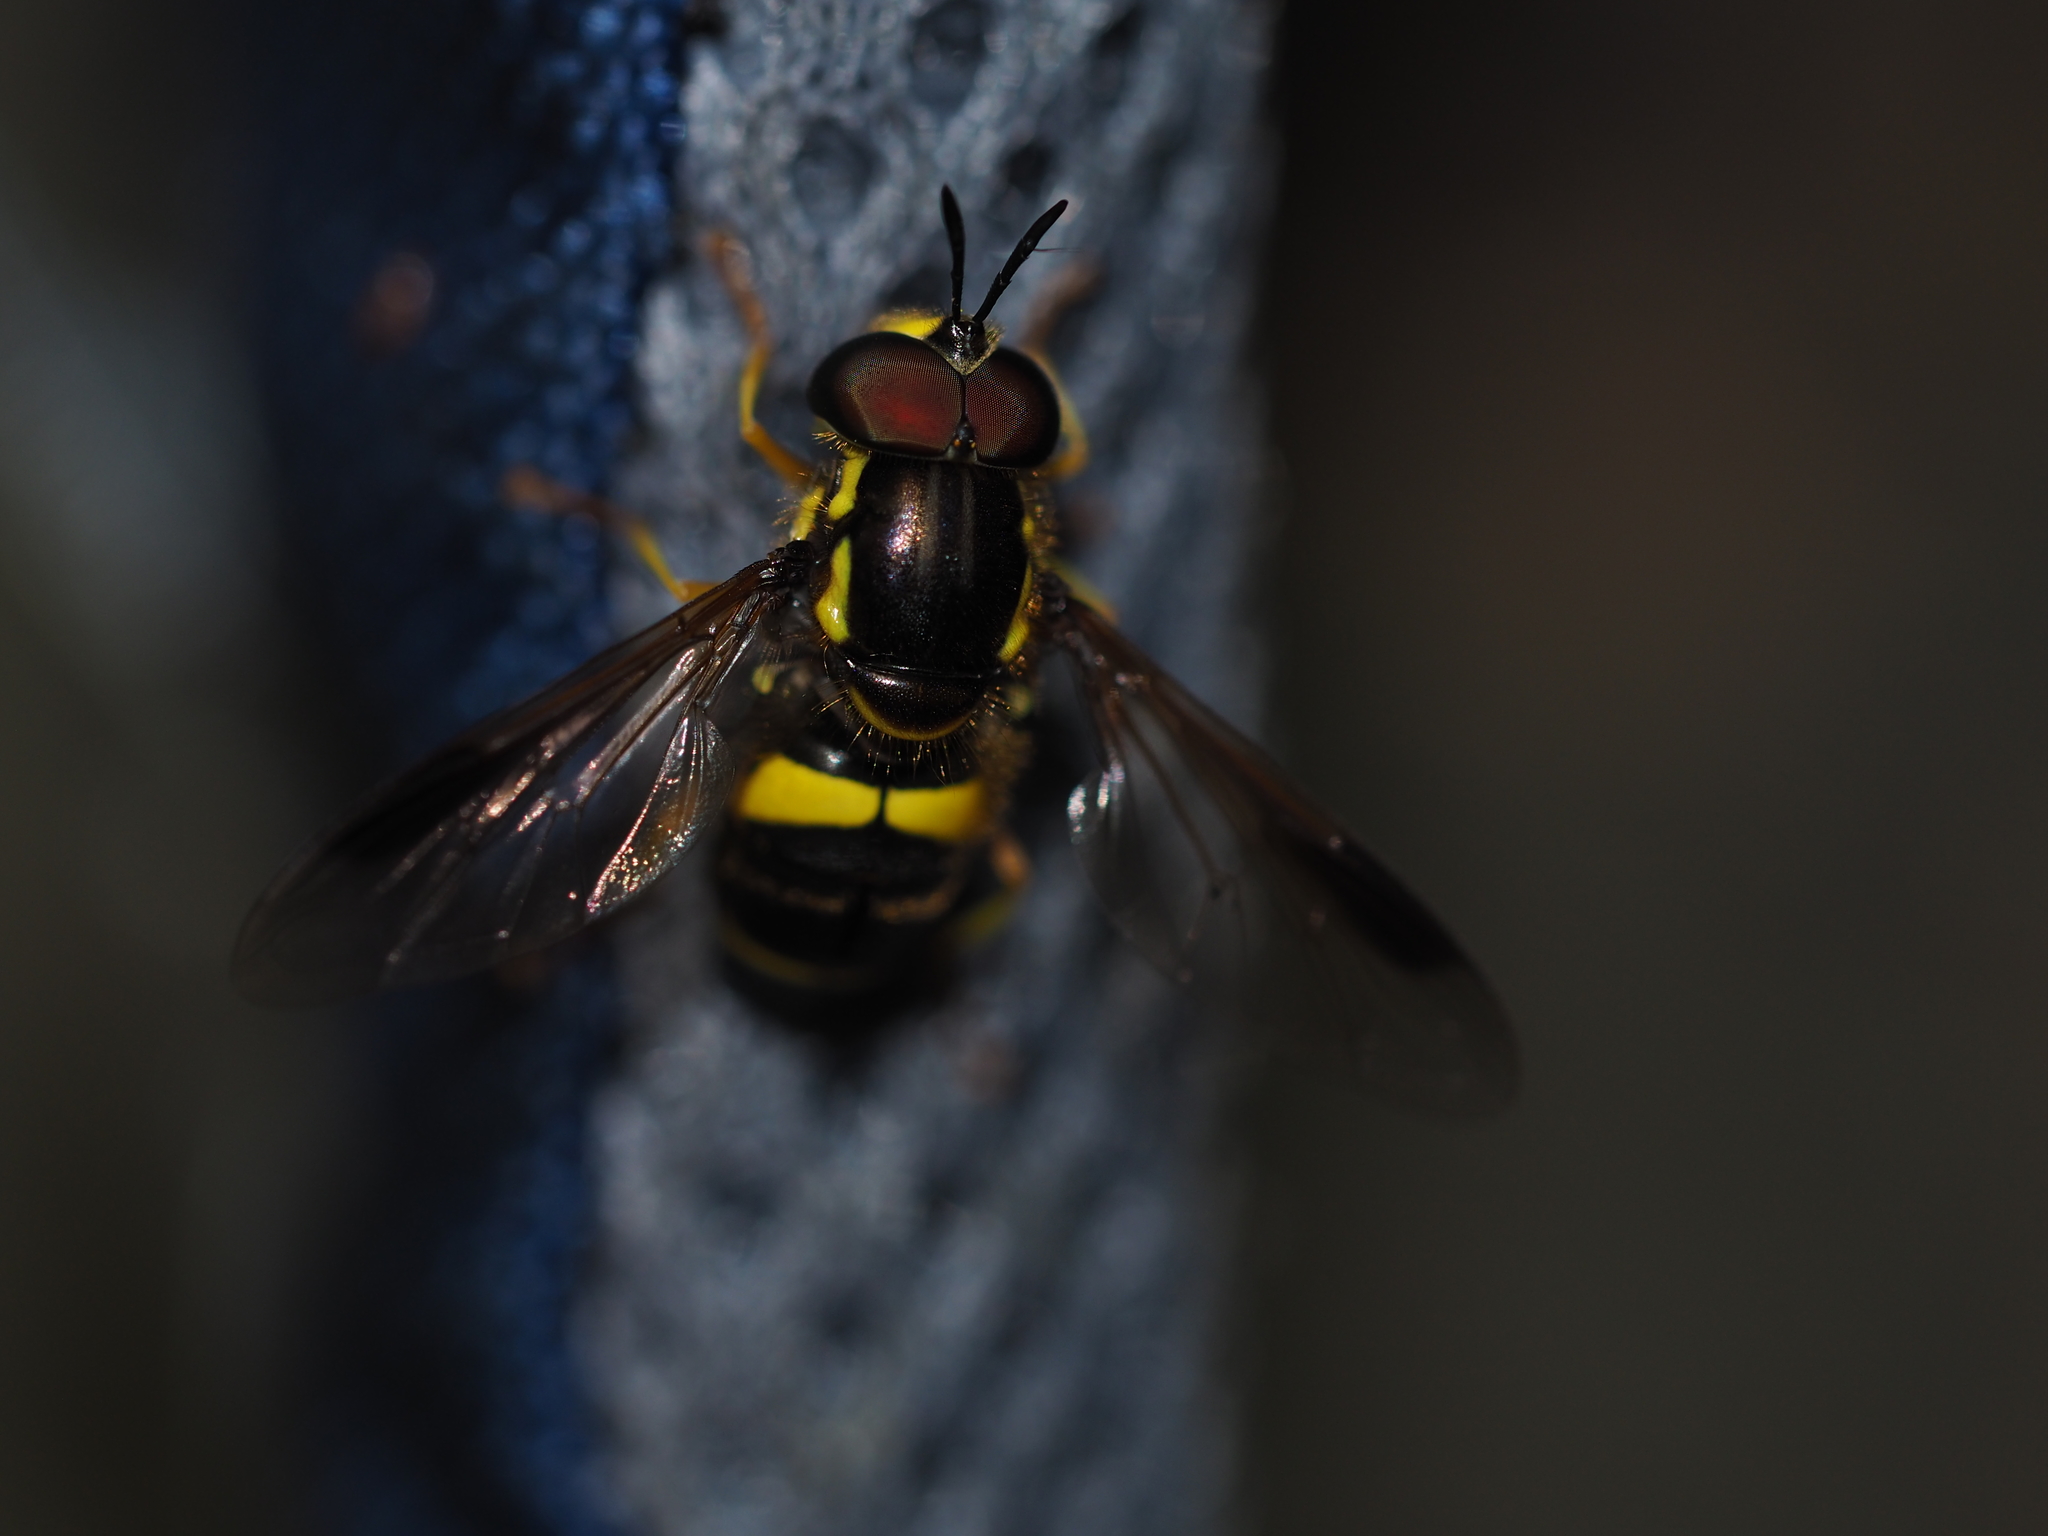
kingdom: Animalia
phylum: Arthropoda
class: Insecta
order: Diptera
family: Syrphidae
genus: Chrysotoxum
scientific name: Chrysotoxum bicincta
